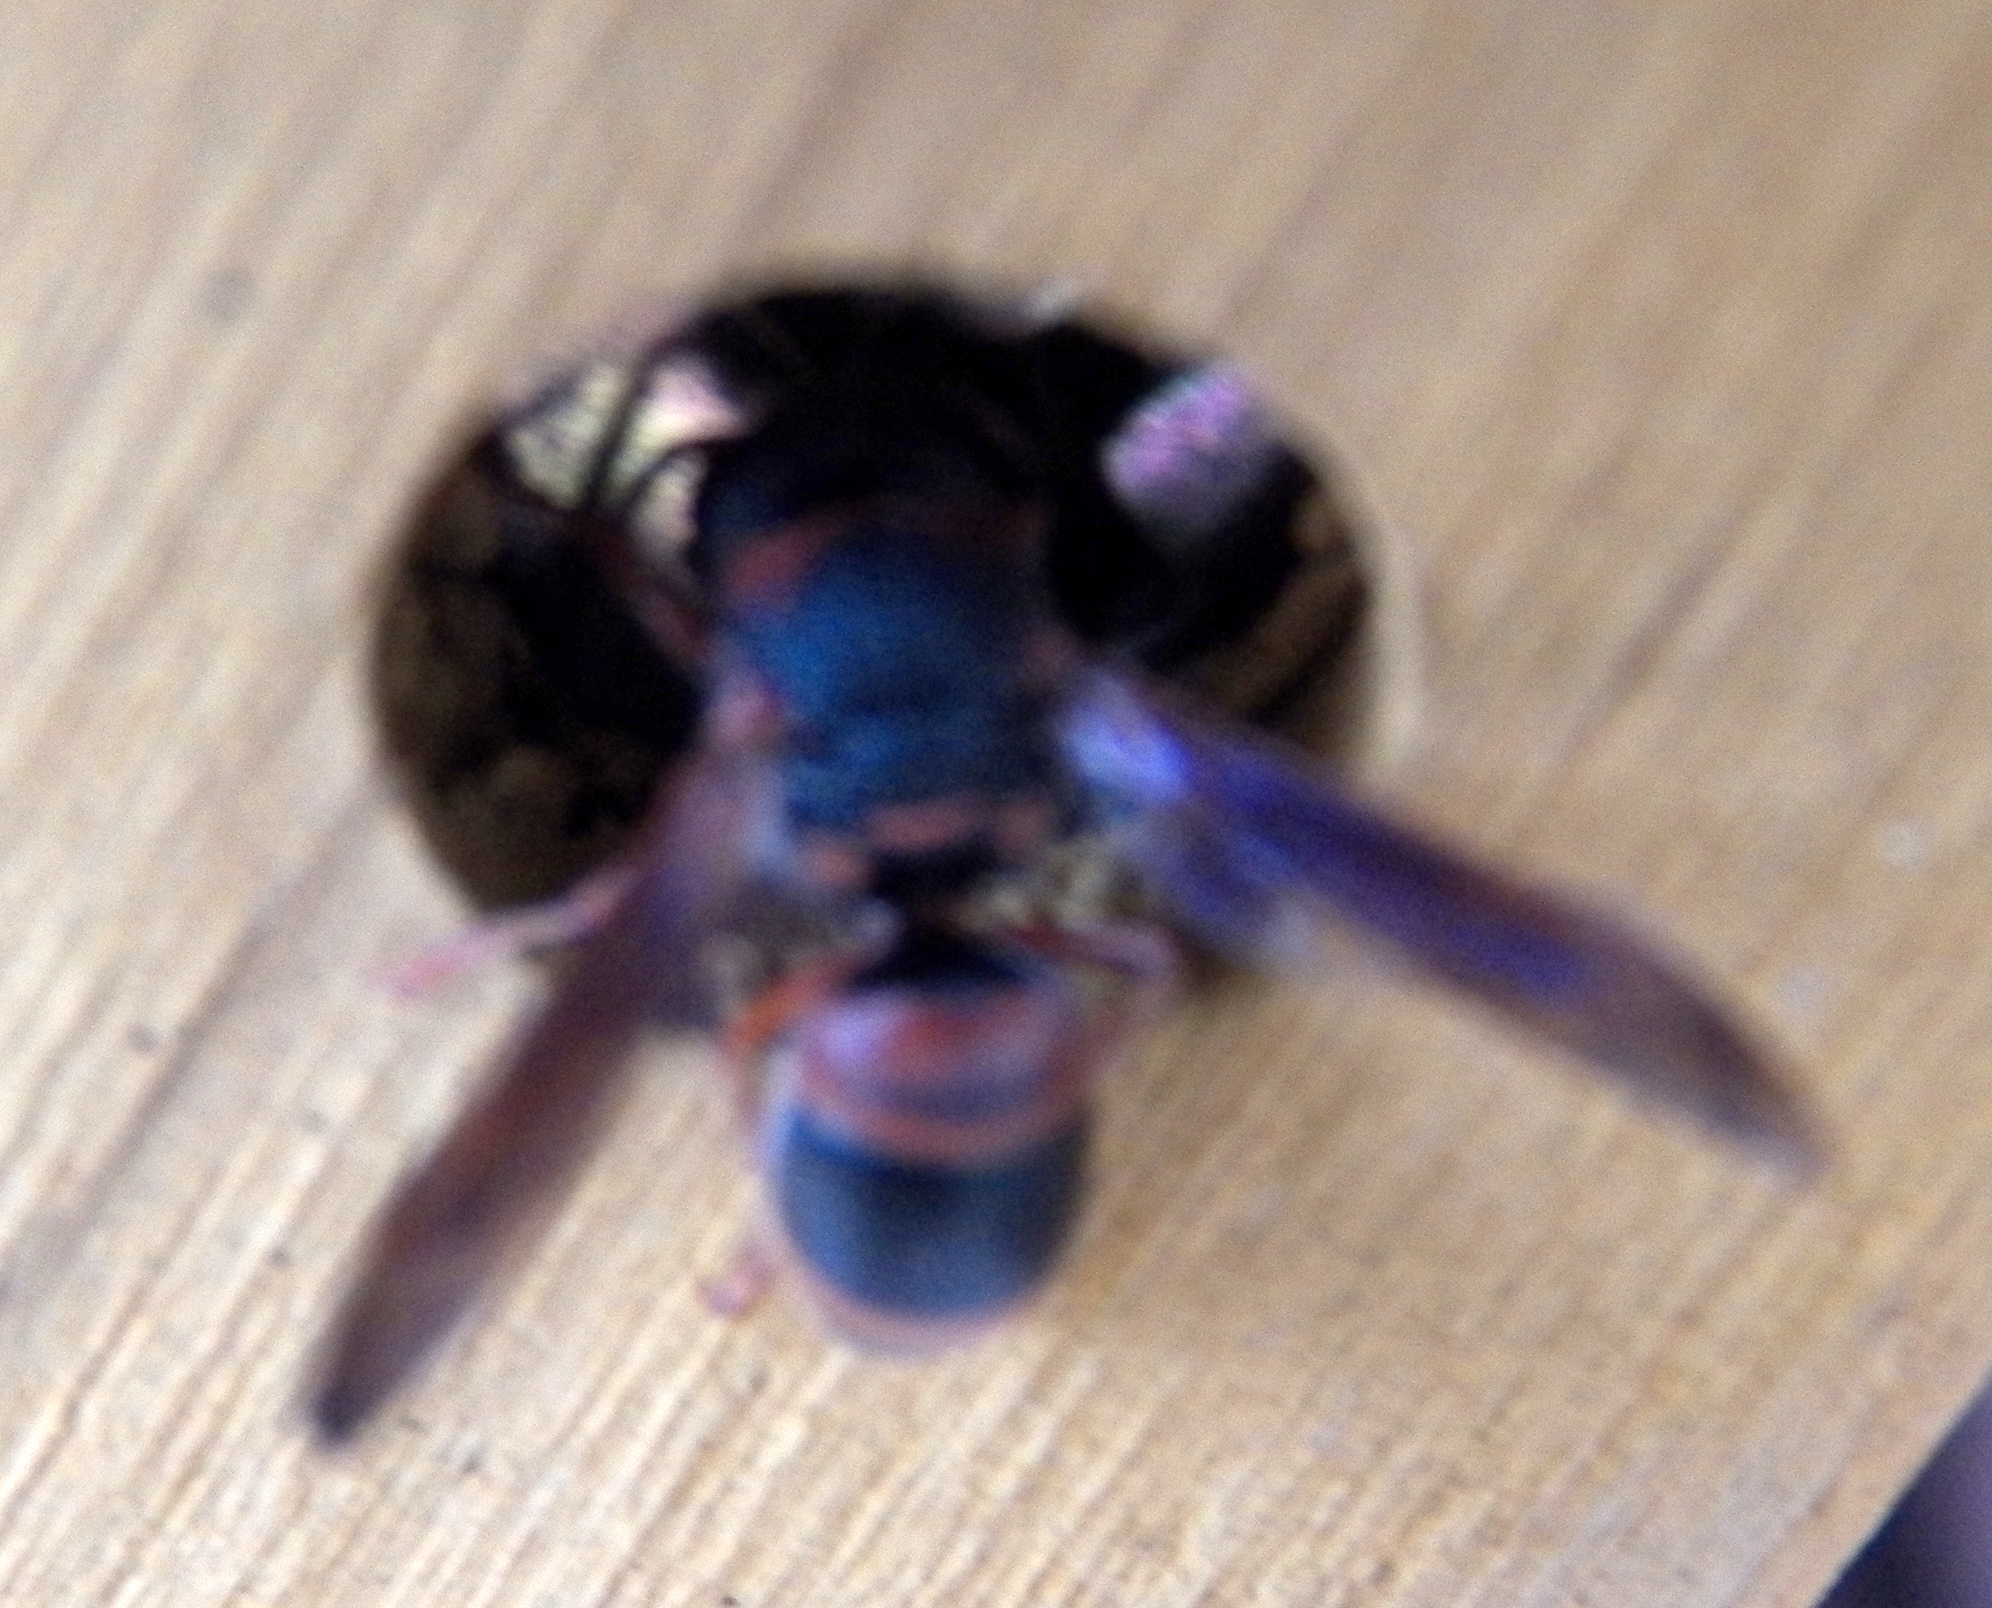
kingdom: Animalia
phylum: Arthropoda
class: Insecta
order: Hymenoptera
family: Eumenidae
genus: Pachodynerus
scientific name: Pachodynerus erynnis
